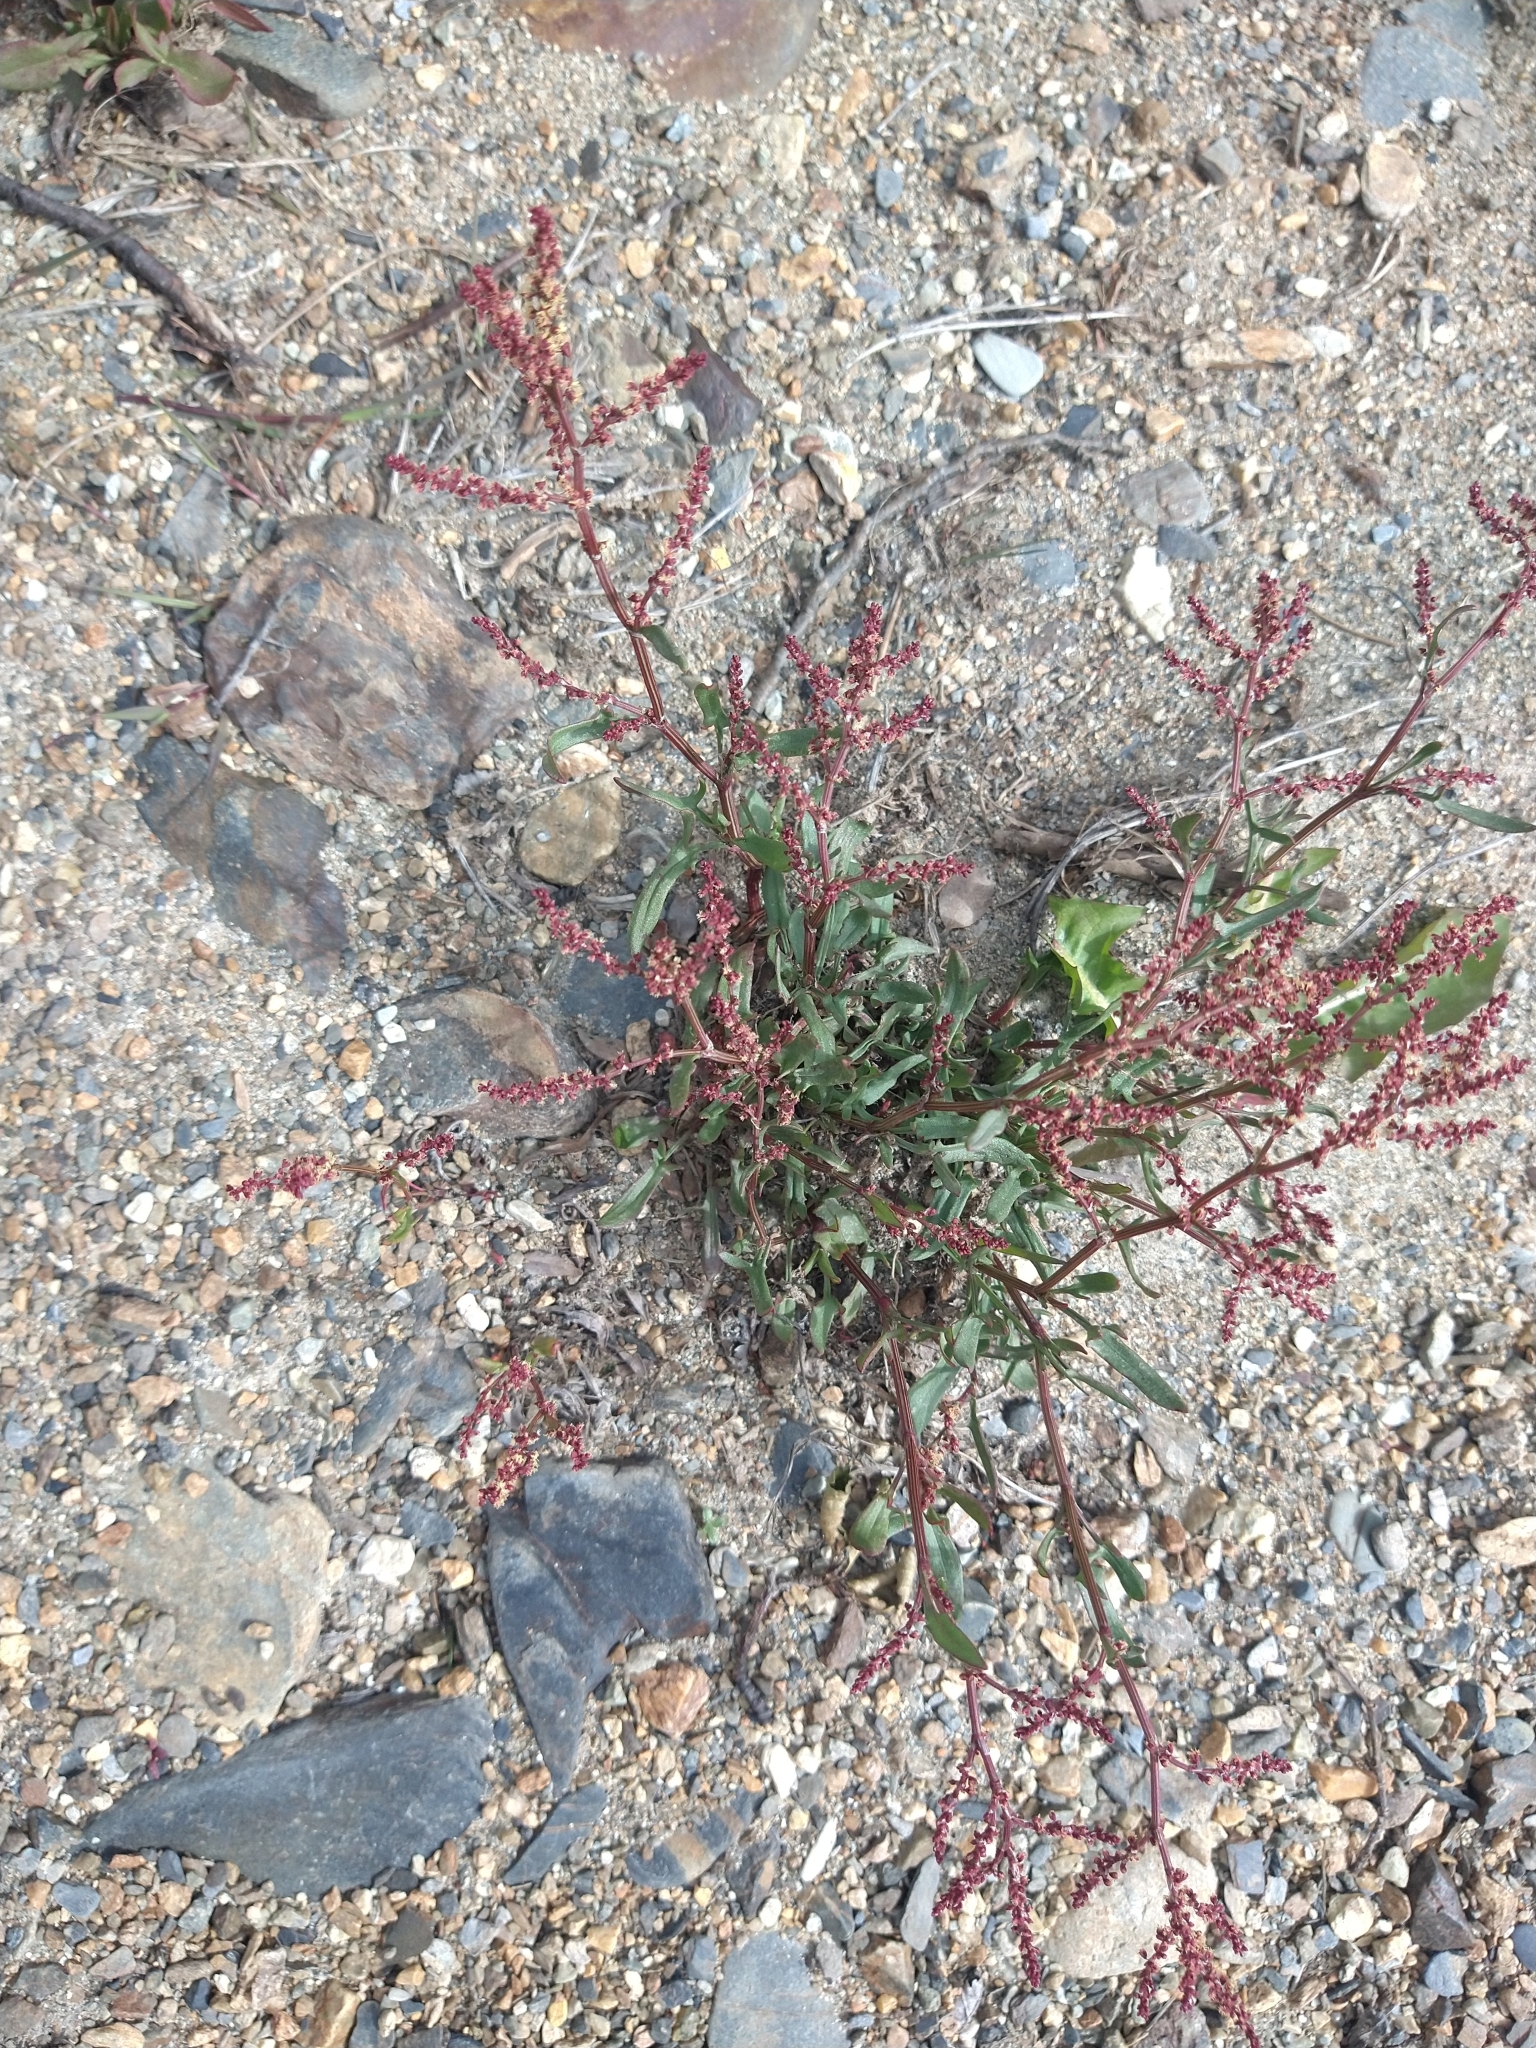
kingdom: Plantae
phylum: Tracheophyta
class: Magnoliopsida
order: Caryophyllales
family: Polygonaceae
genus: Rumex
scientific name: Rumex acetosella
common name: Common sheep sorrel
